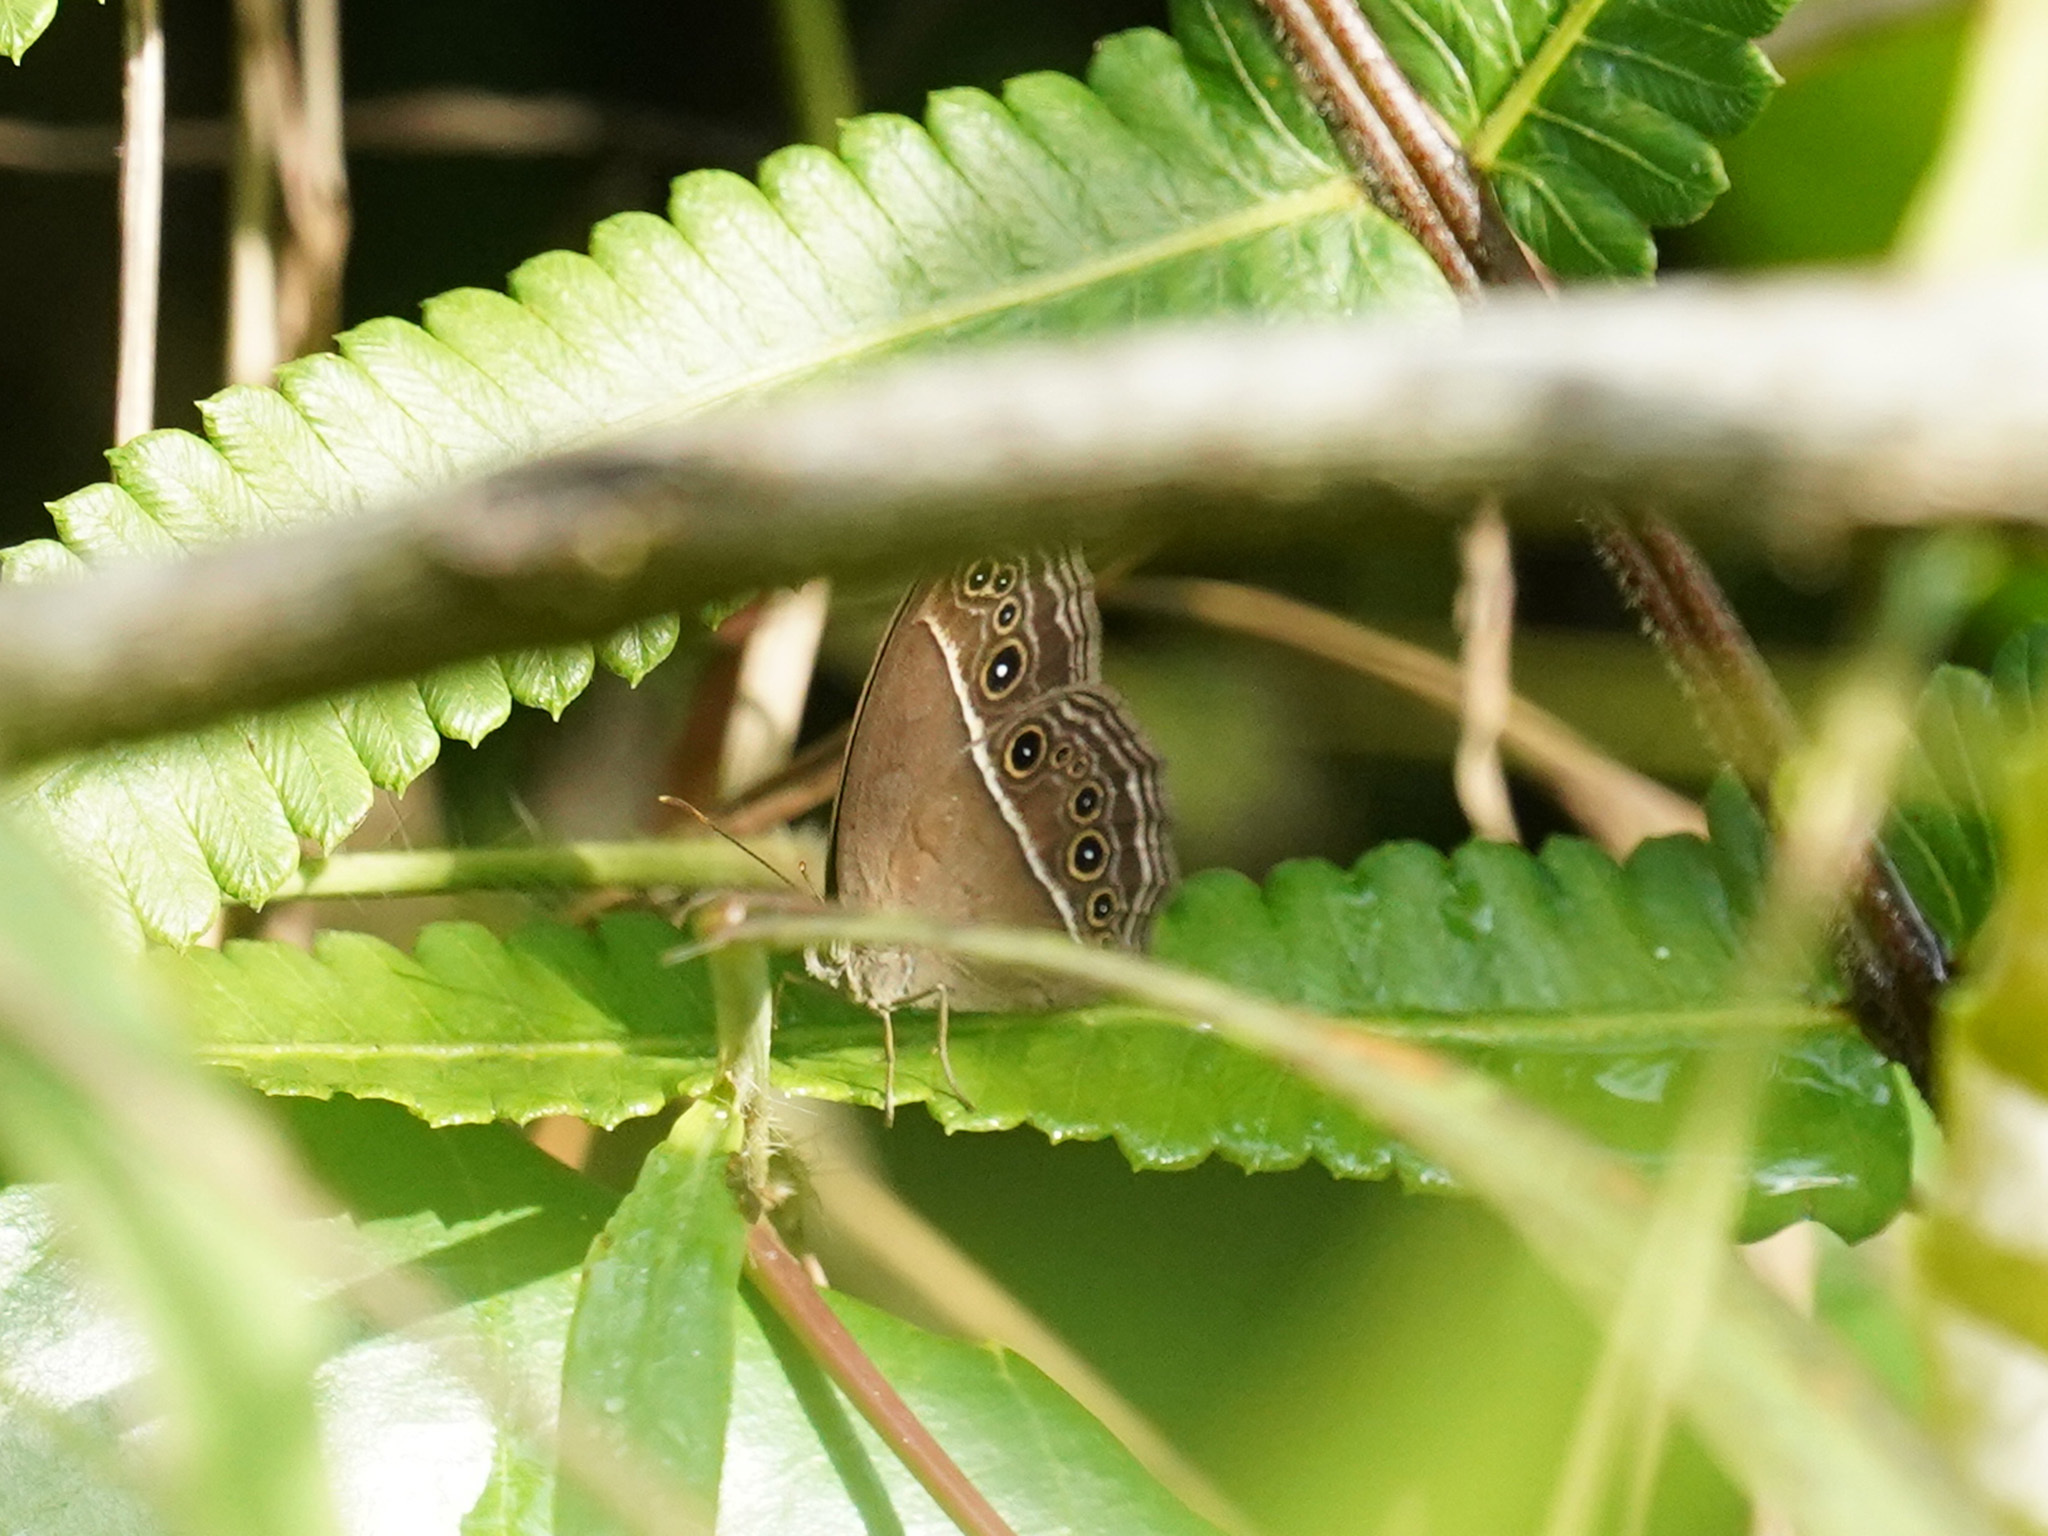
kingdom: Animalia
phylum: Arthropoda
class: Insecta
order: Lepidoptera
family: Nymphalidae
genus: Mycalesis
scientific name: Mycalesis perseus
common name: Dingy bushbrown
